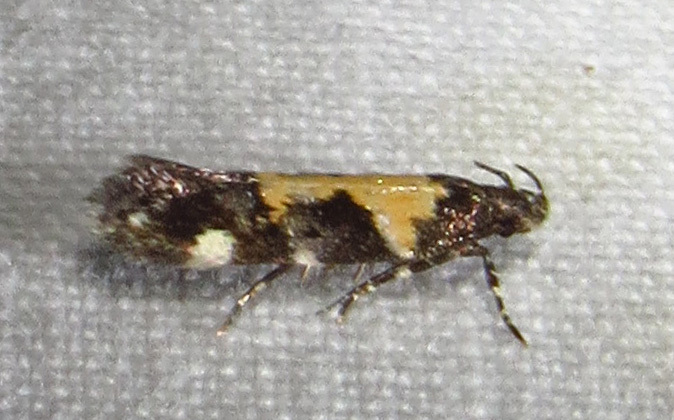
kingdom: Animalia
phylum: Arthropoda
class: Insecta
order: Lepidoptera
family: Gelechiidae
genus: Stegasta
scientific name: Stegasta bosqueella
